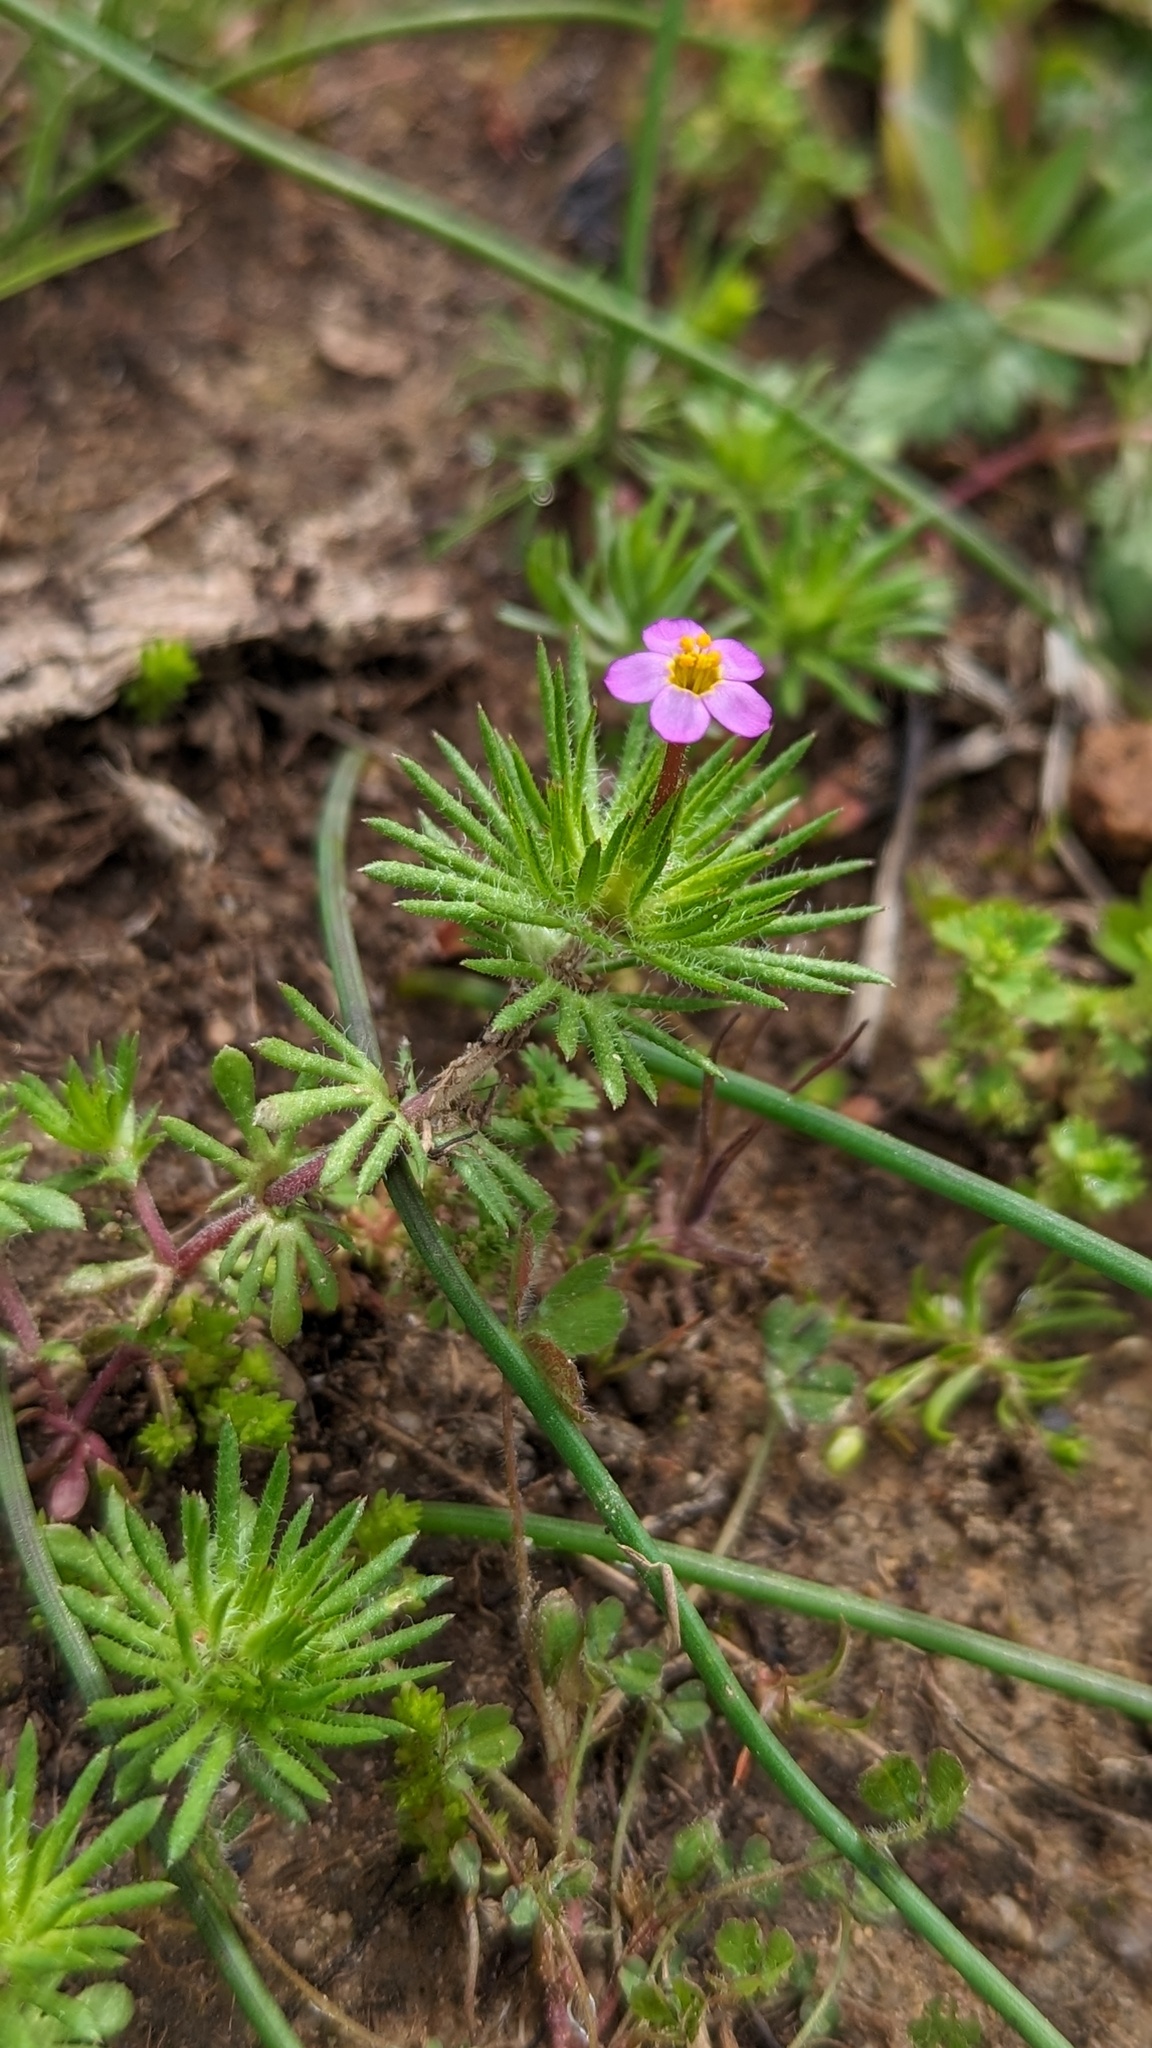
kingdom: Plantae
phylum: Tracheophyta
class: Magnoliopsida
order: Ericales
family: Polemoniaceae
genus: Leptosiphon
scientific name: Leptosiphon bicolor
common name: True babystars
